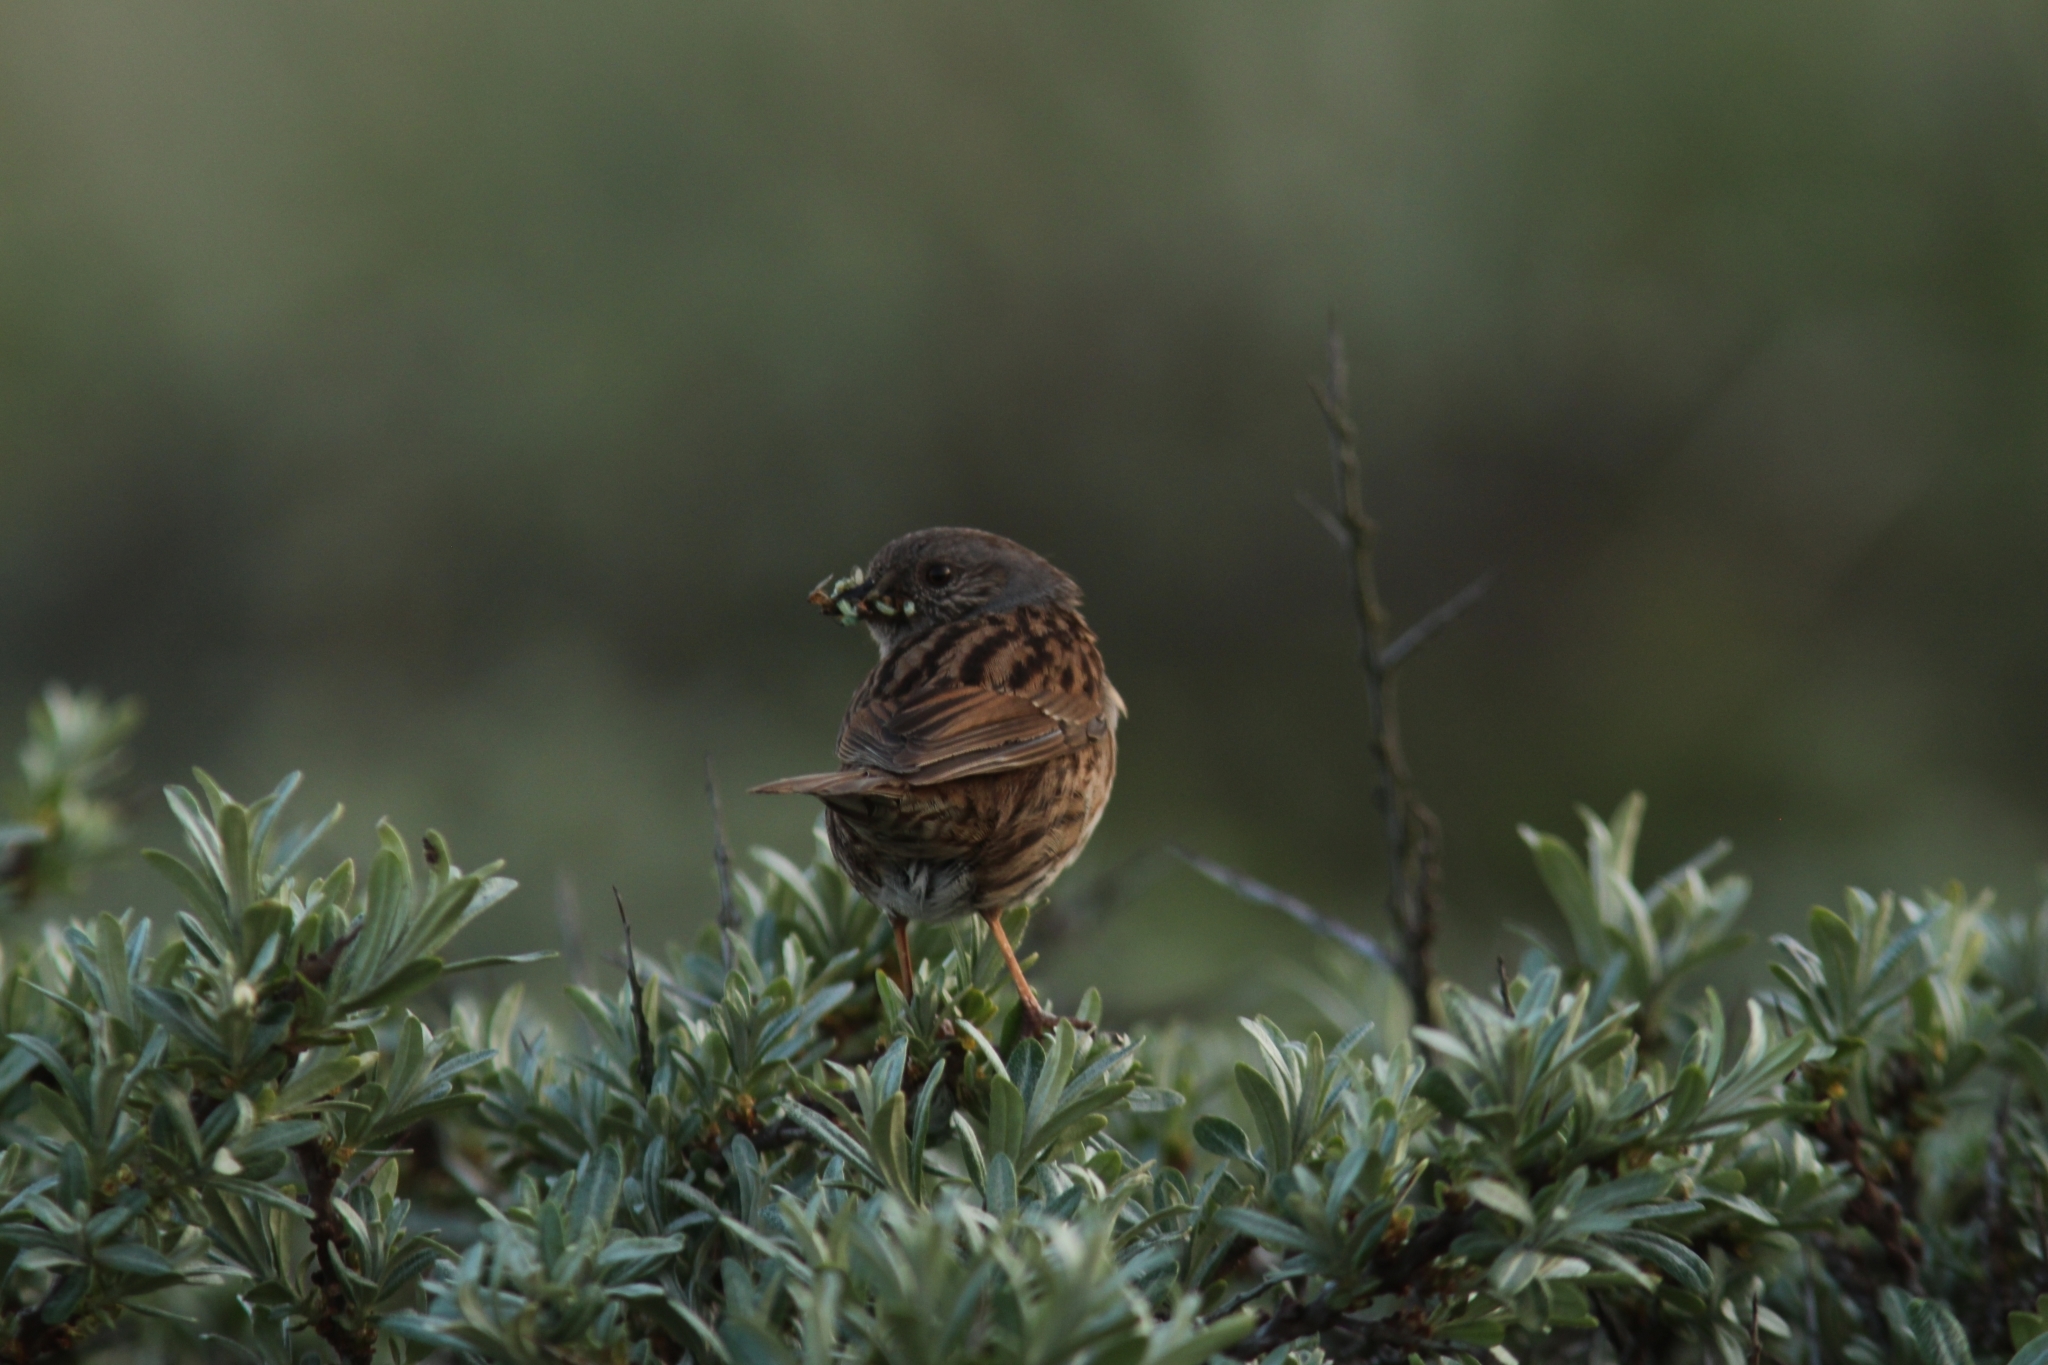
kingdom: Animalia
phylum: Chordata
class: Aves
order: Passeriformes
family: Prunellidae
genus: Prunella
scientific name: Prunella modularis
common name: Dunnock
